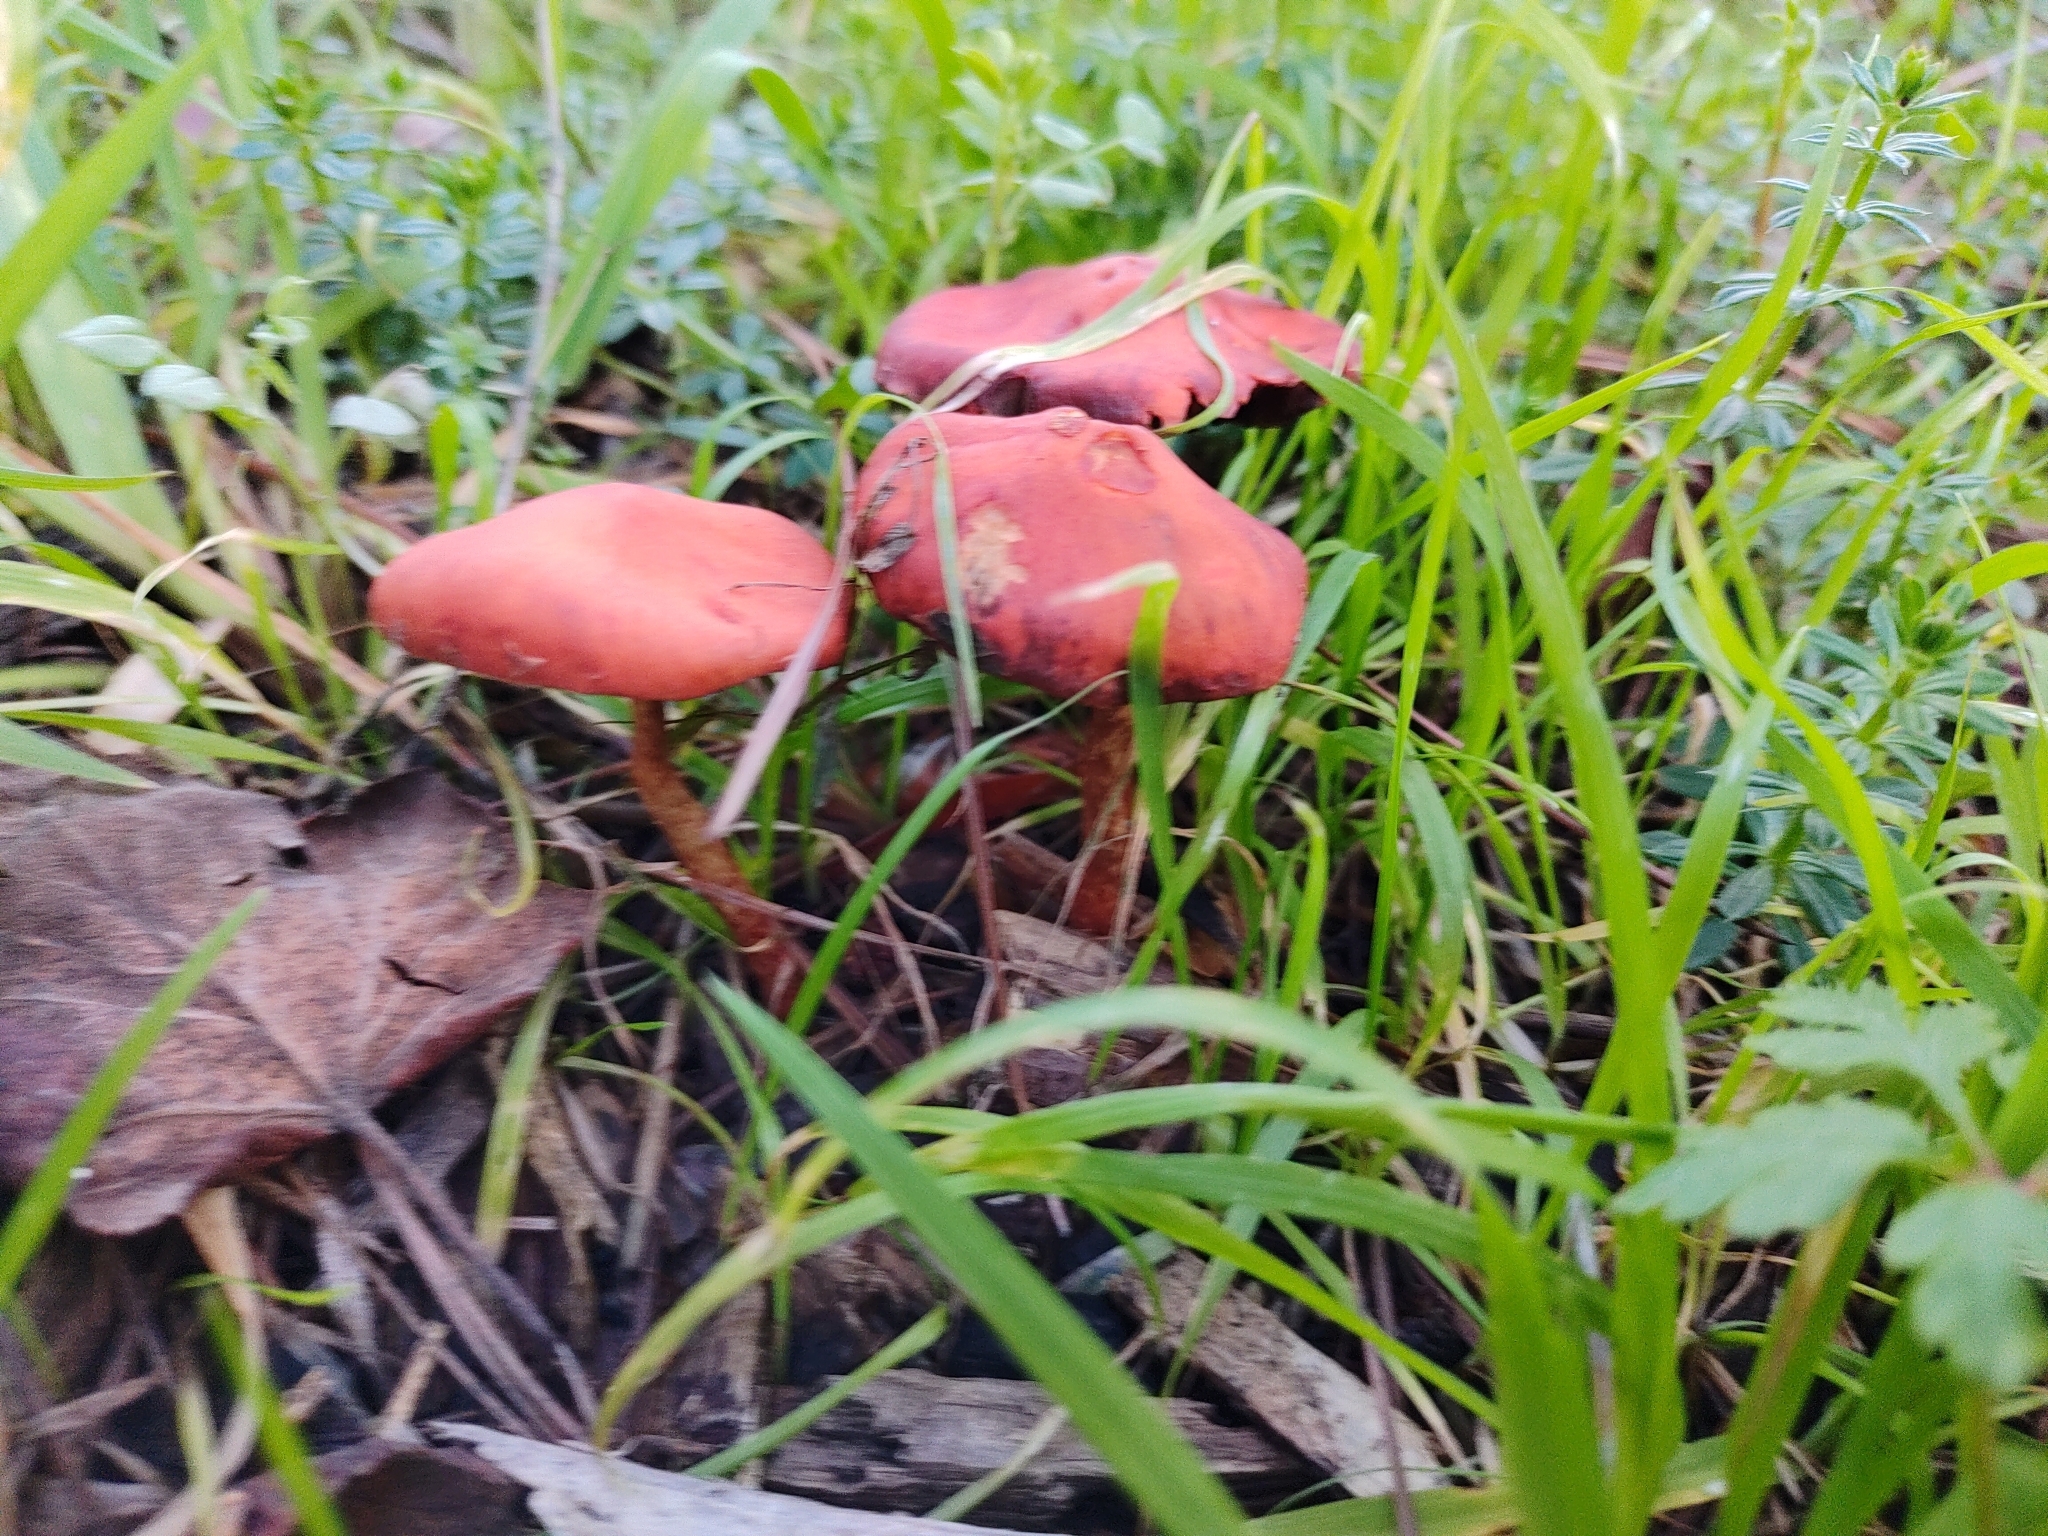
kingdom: Fungi
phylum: Basidiomycota
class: Agaricomycetes
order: Agaricales
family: Strophariaceae
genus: Leratiomyces
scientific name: Leratiomyces ceres
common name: Redlead roundhead
